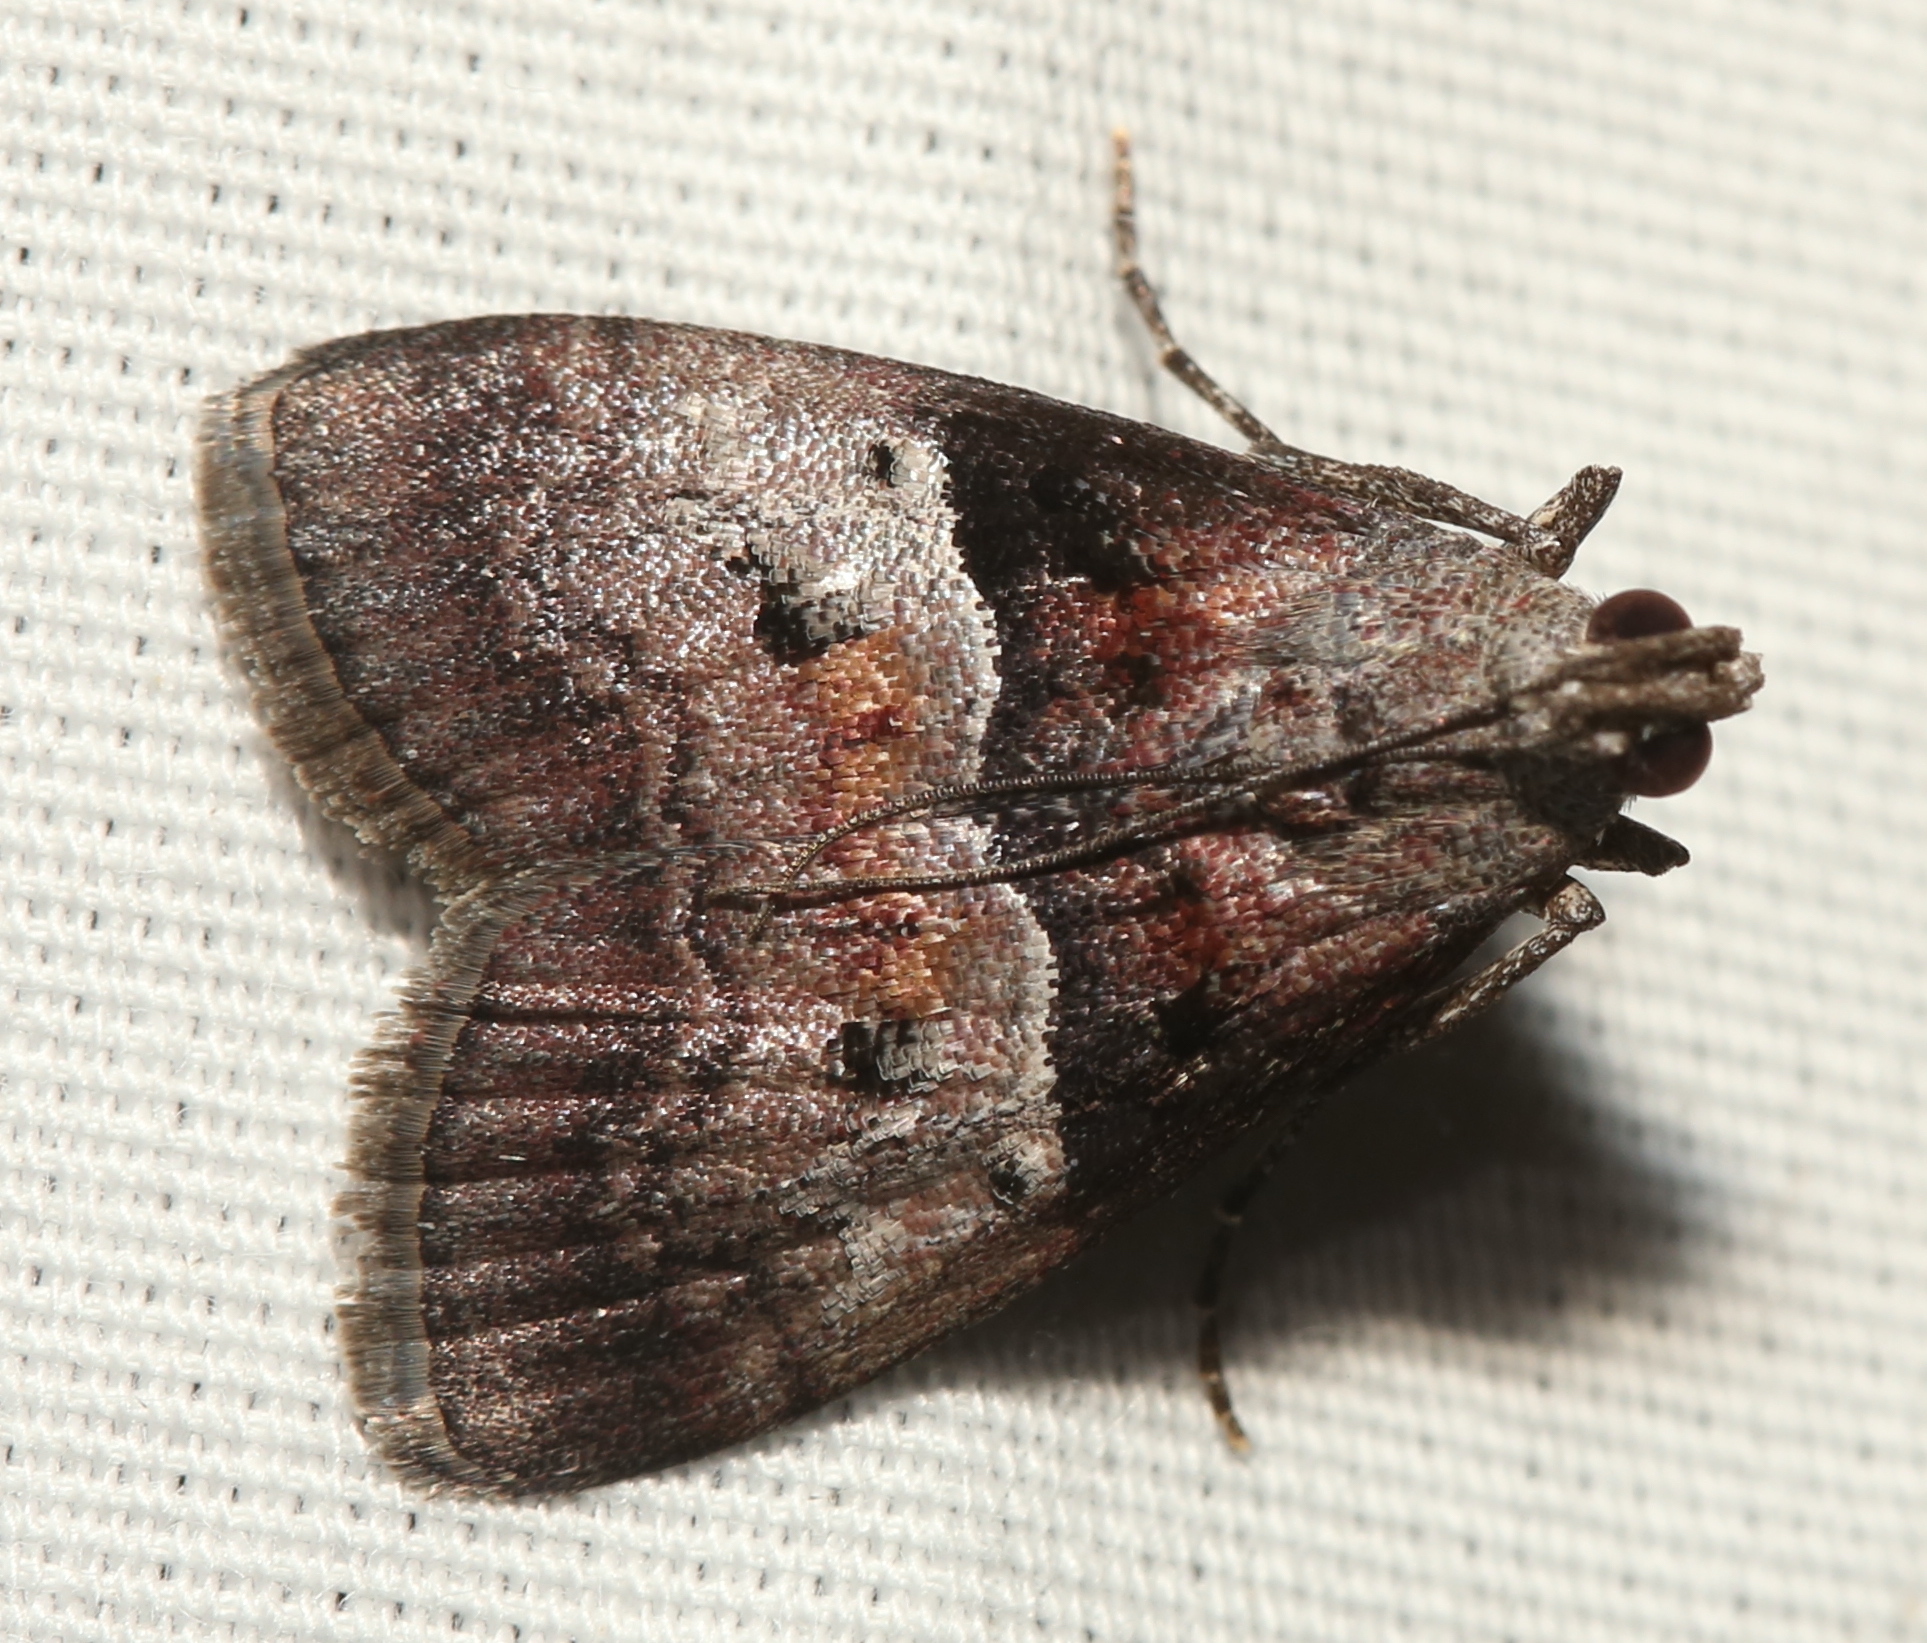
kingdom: Animalia
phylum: Arthropoda
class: Insecta
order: Lepidoptera
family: Pyralidae
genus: Pococera
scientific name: Pococera robustella
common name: Pine webworm moth
